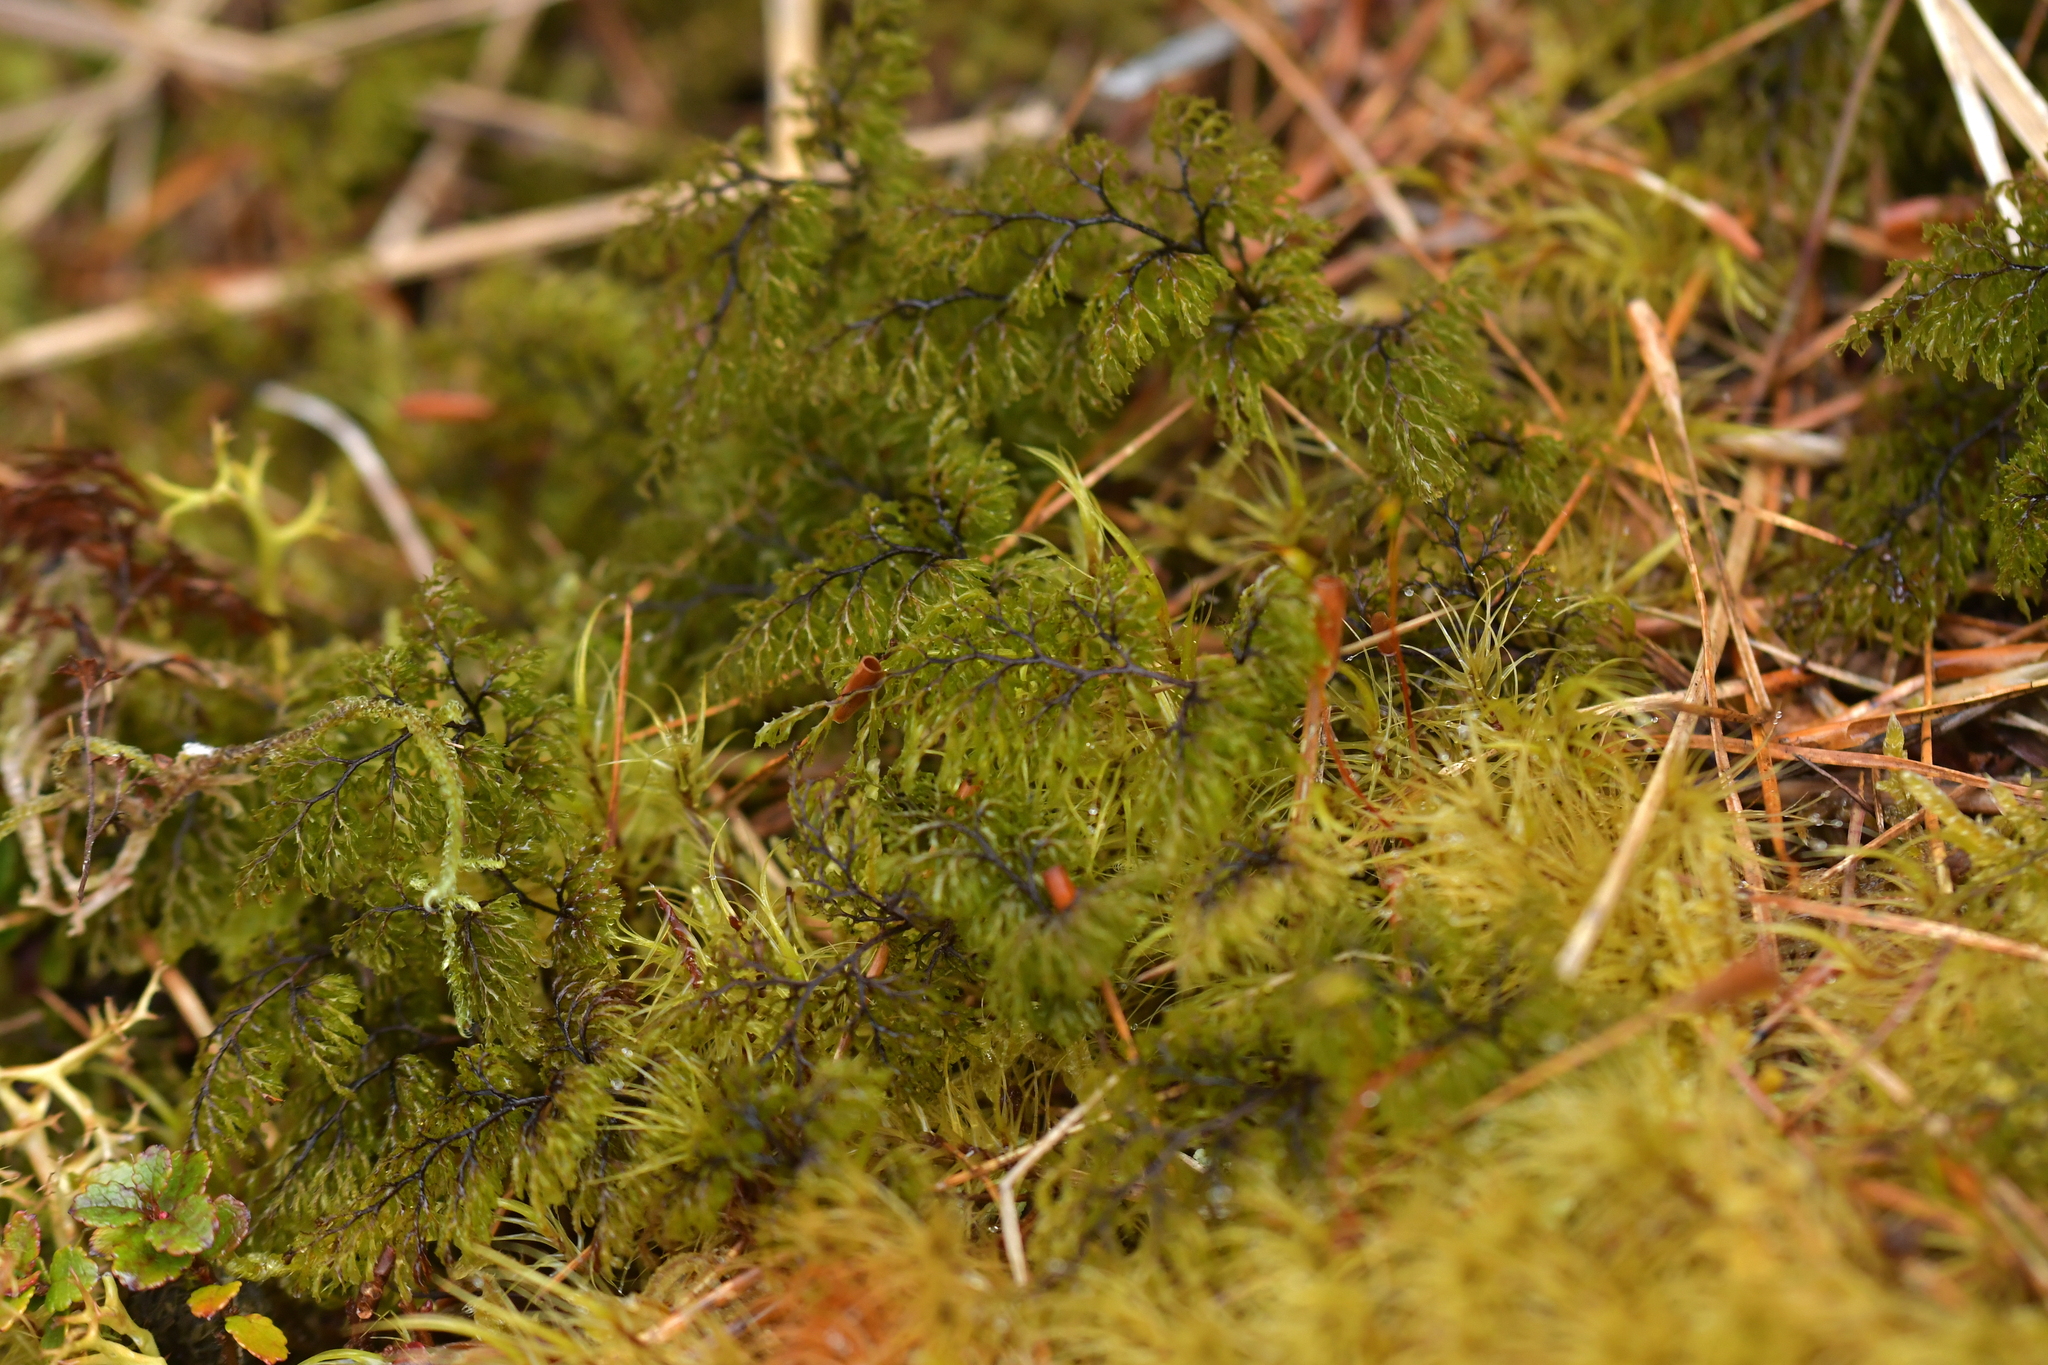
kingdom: Plantae
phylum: Tracheophyta
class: Polypodiopsida
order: Hymenophyllales
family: Hymenophyllaceae
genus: Hymenophyllum
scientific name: Hymenophyllum multifidum
